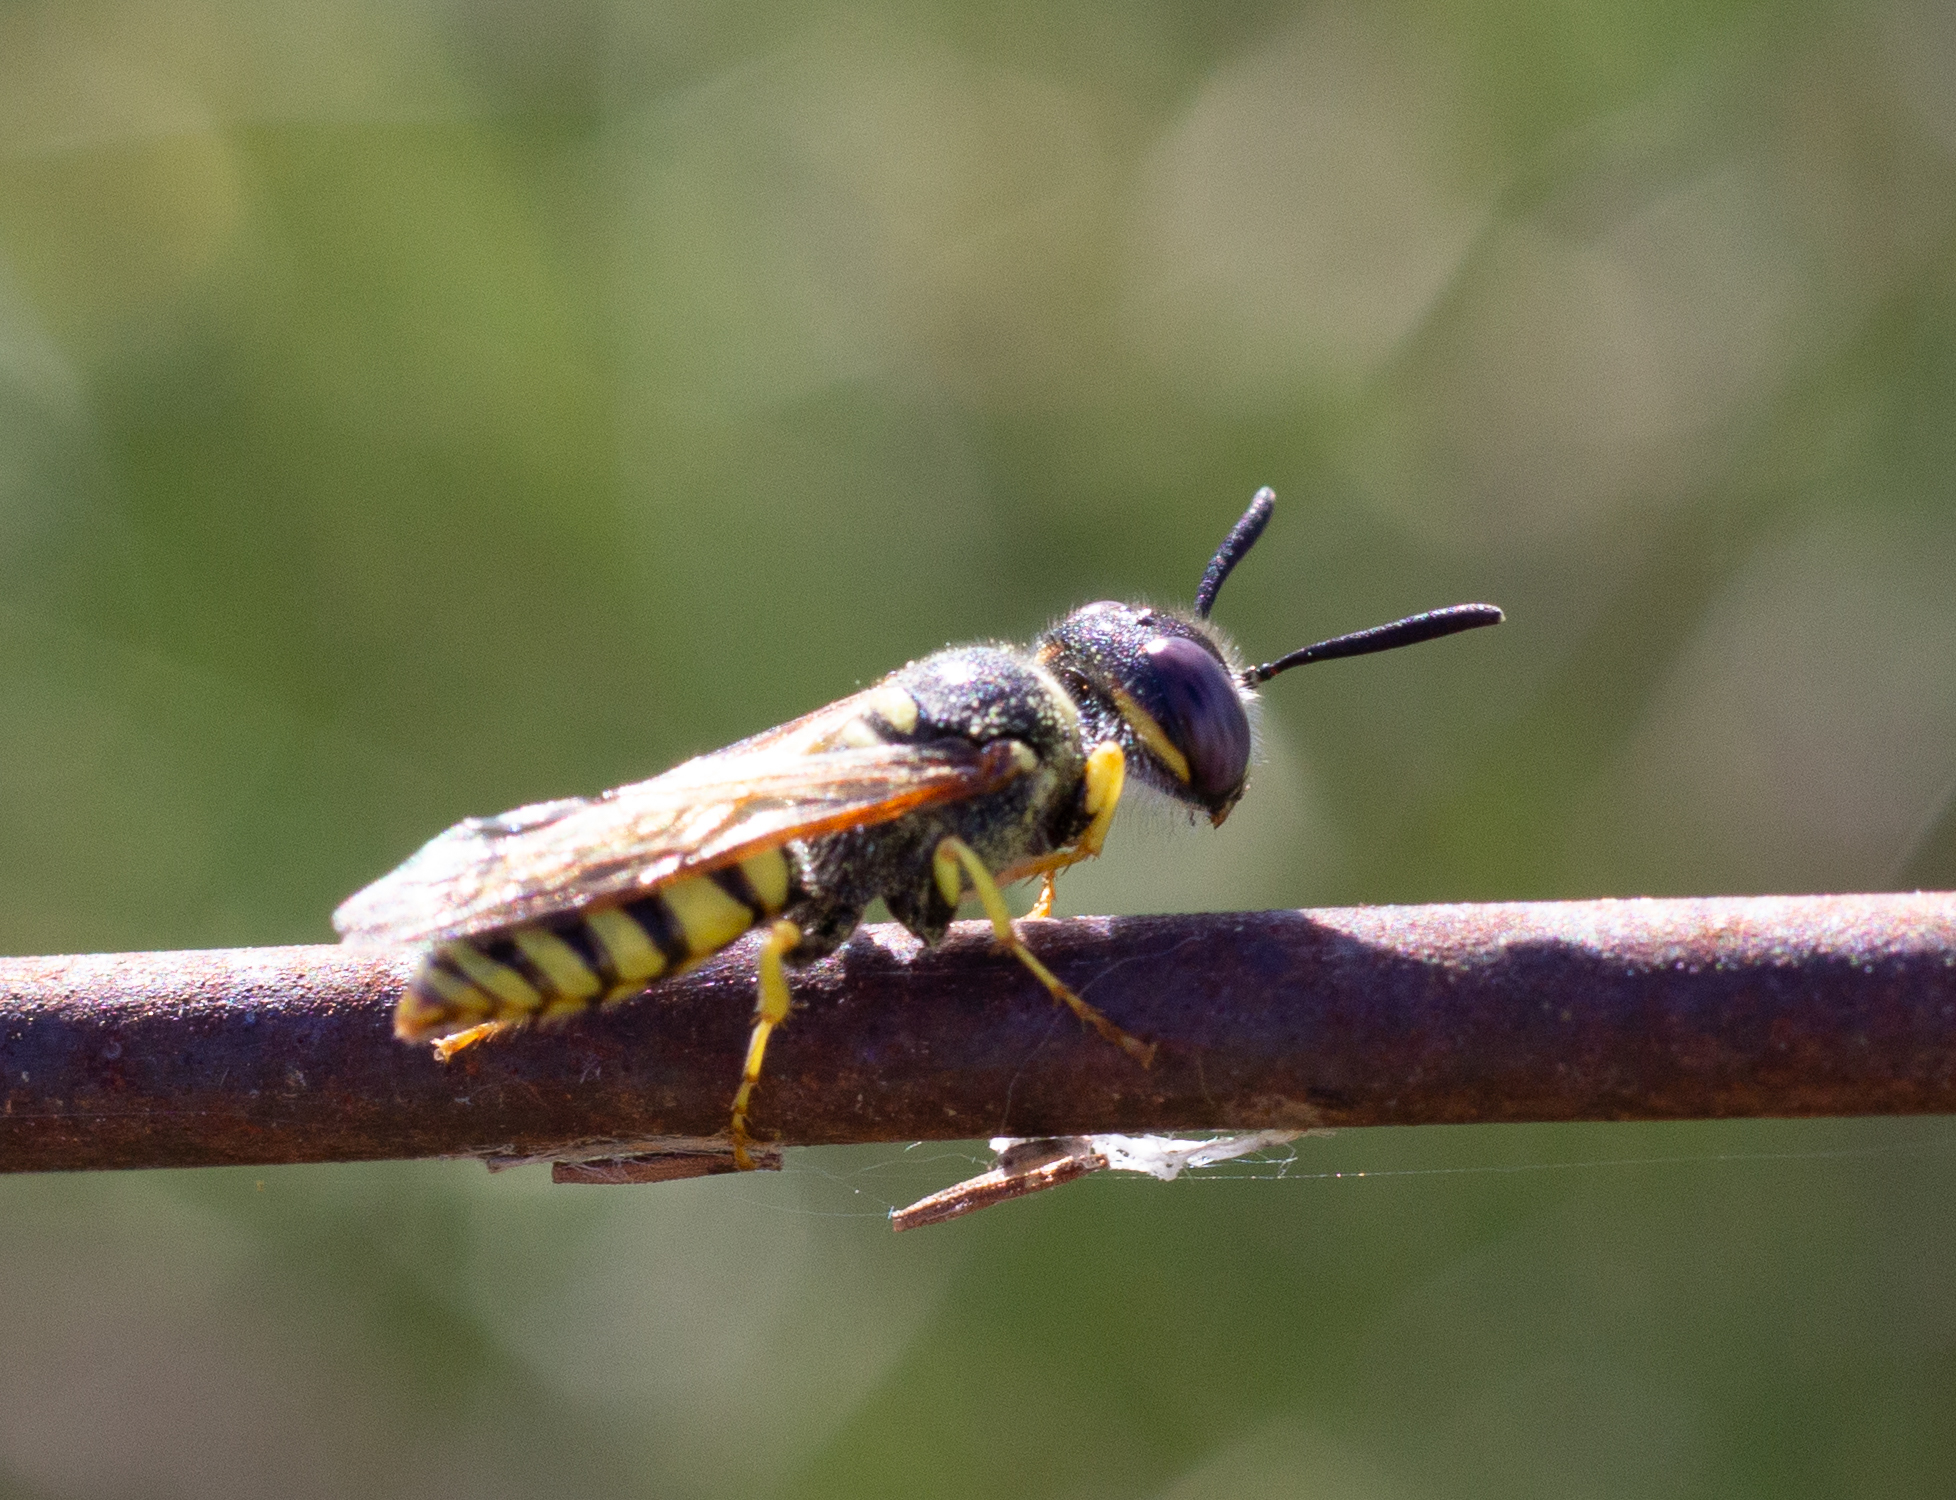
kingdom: Animalia
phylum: Arthropoda
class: Insecta
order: Hymenoptera
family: Crabronidae
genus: Philanthus
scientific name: Philanthus triangulum
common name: Bee wolf
